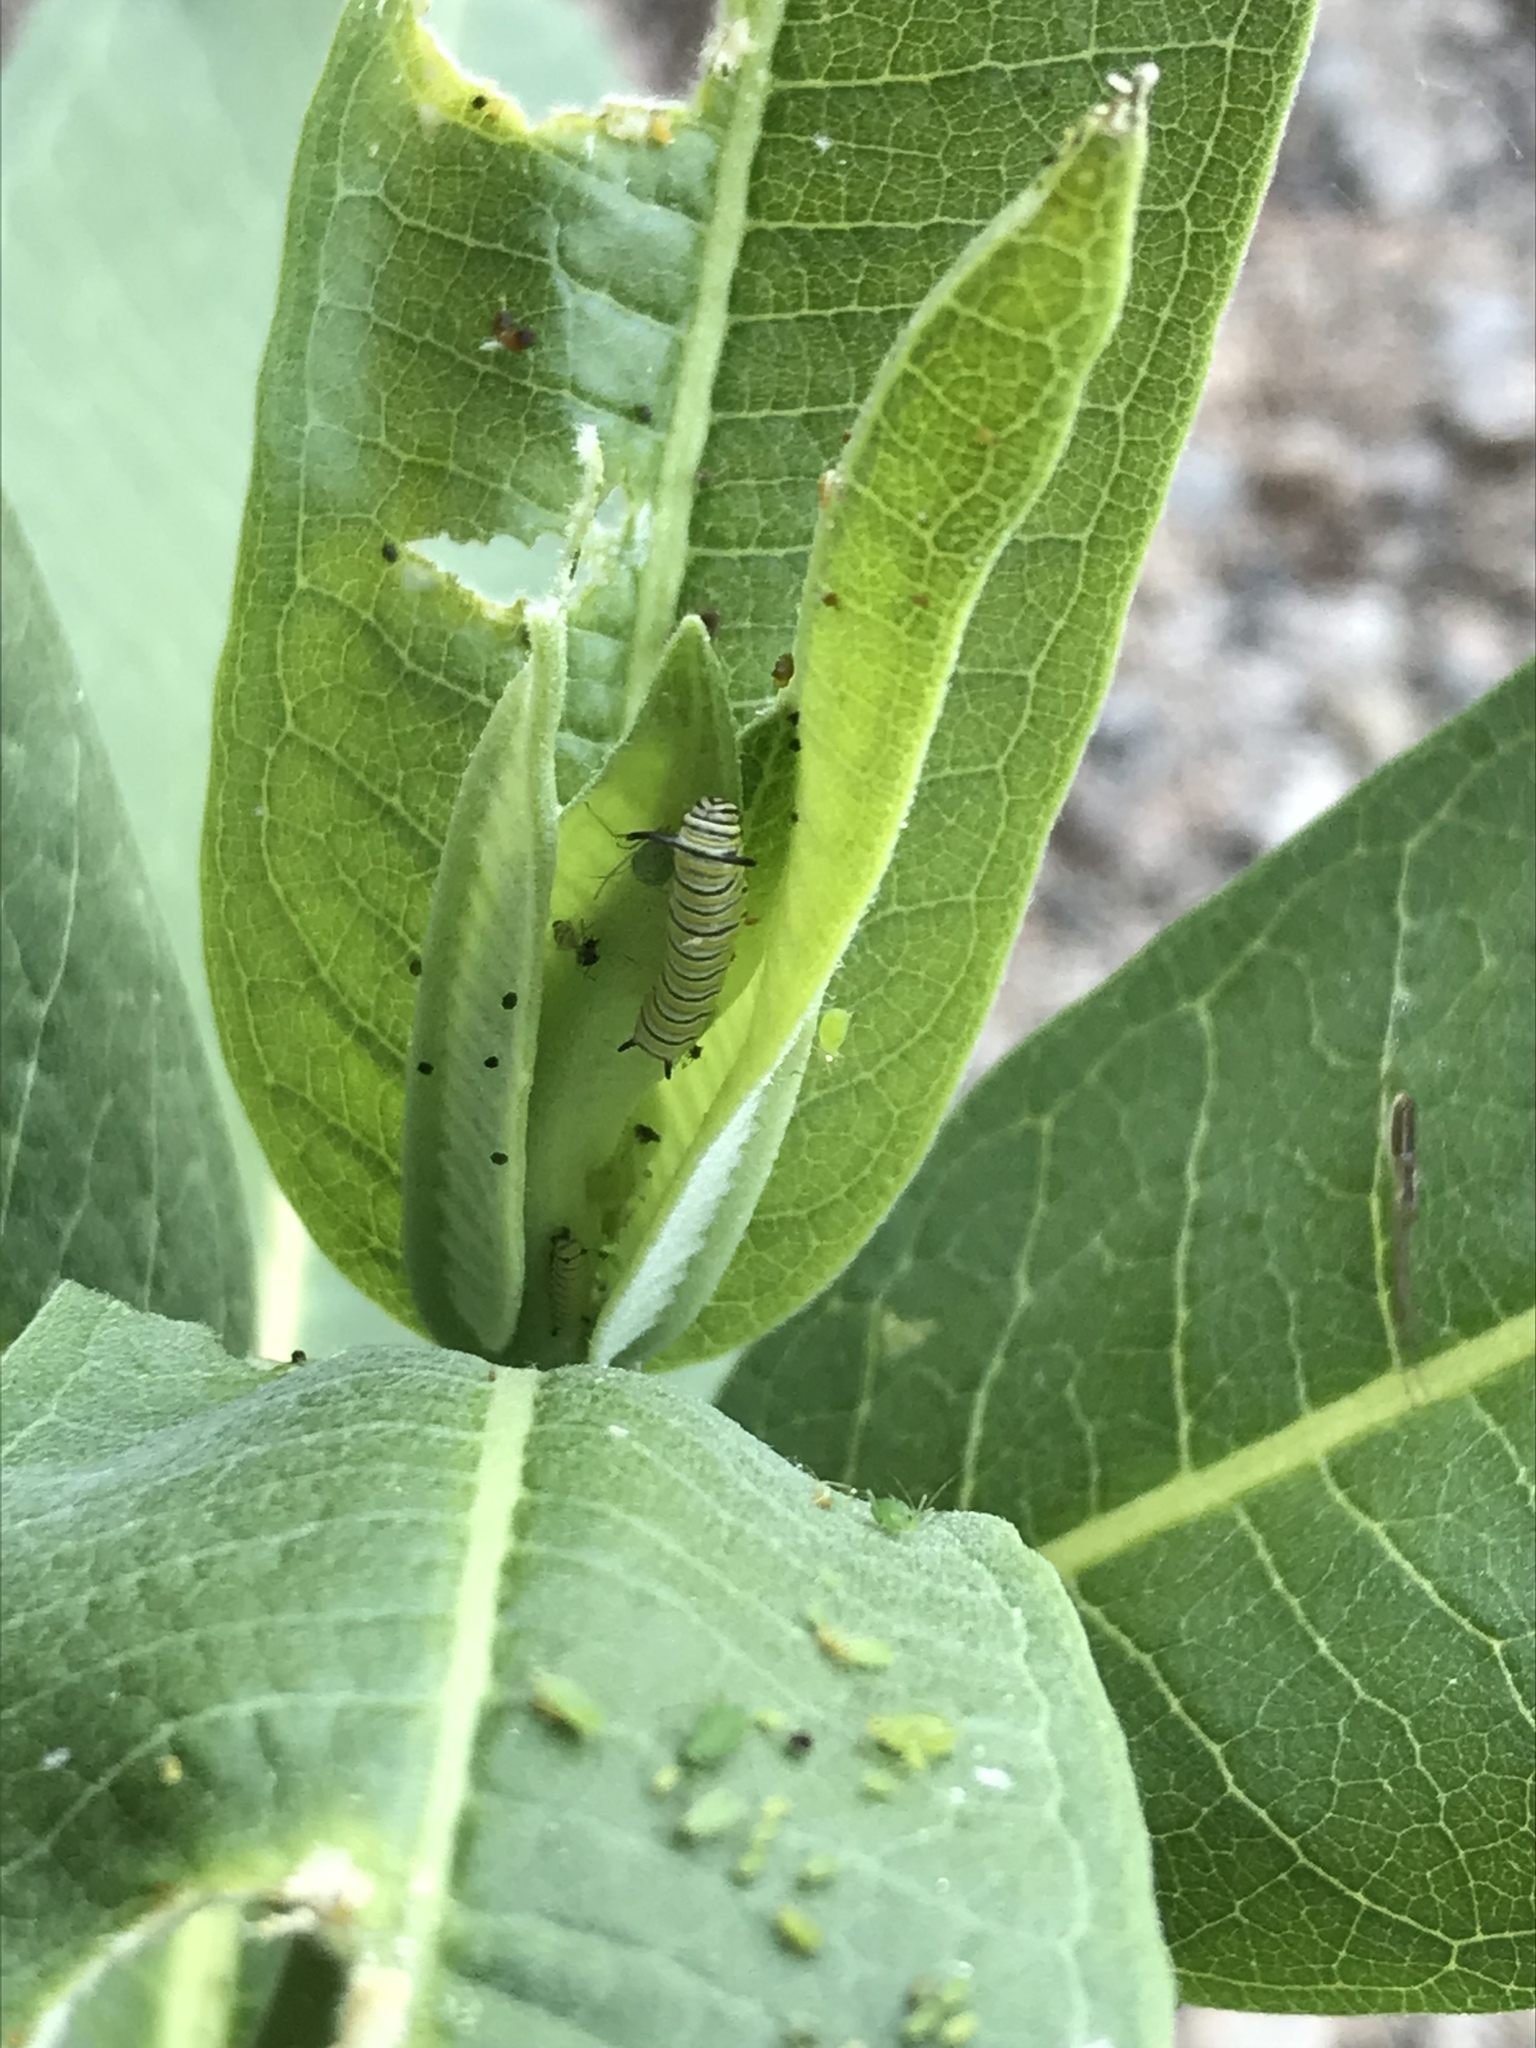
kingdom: Animalia
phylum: Arthropoda
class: Insecta
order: Lepidoptera
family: Nymphalidae
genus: Danaus
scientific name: Danaus plexippus
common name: Monarch
